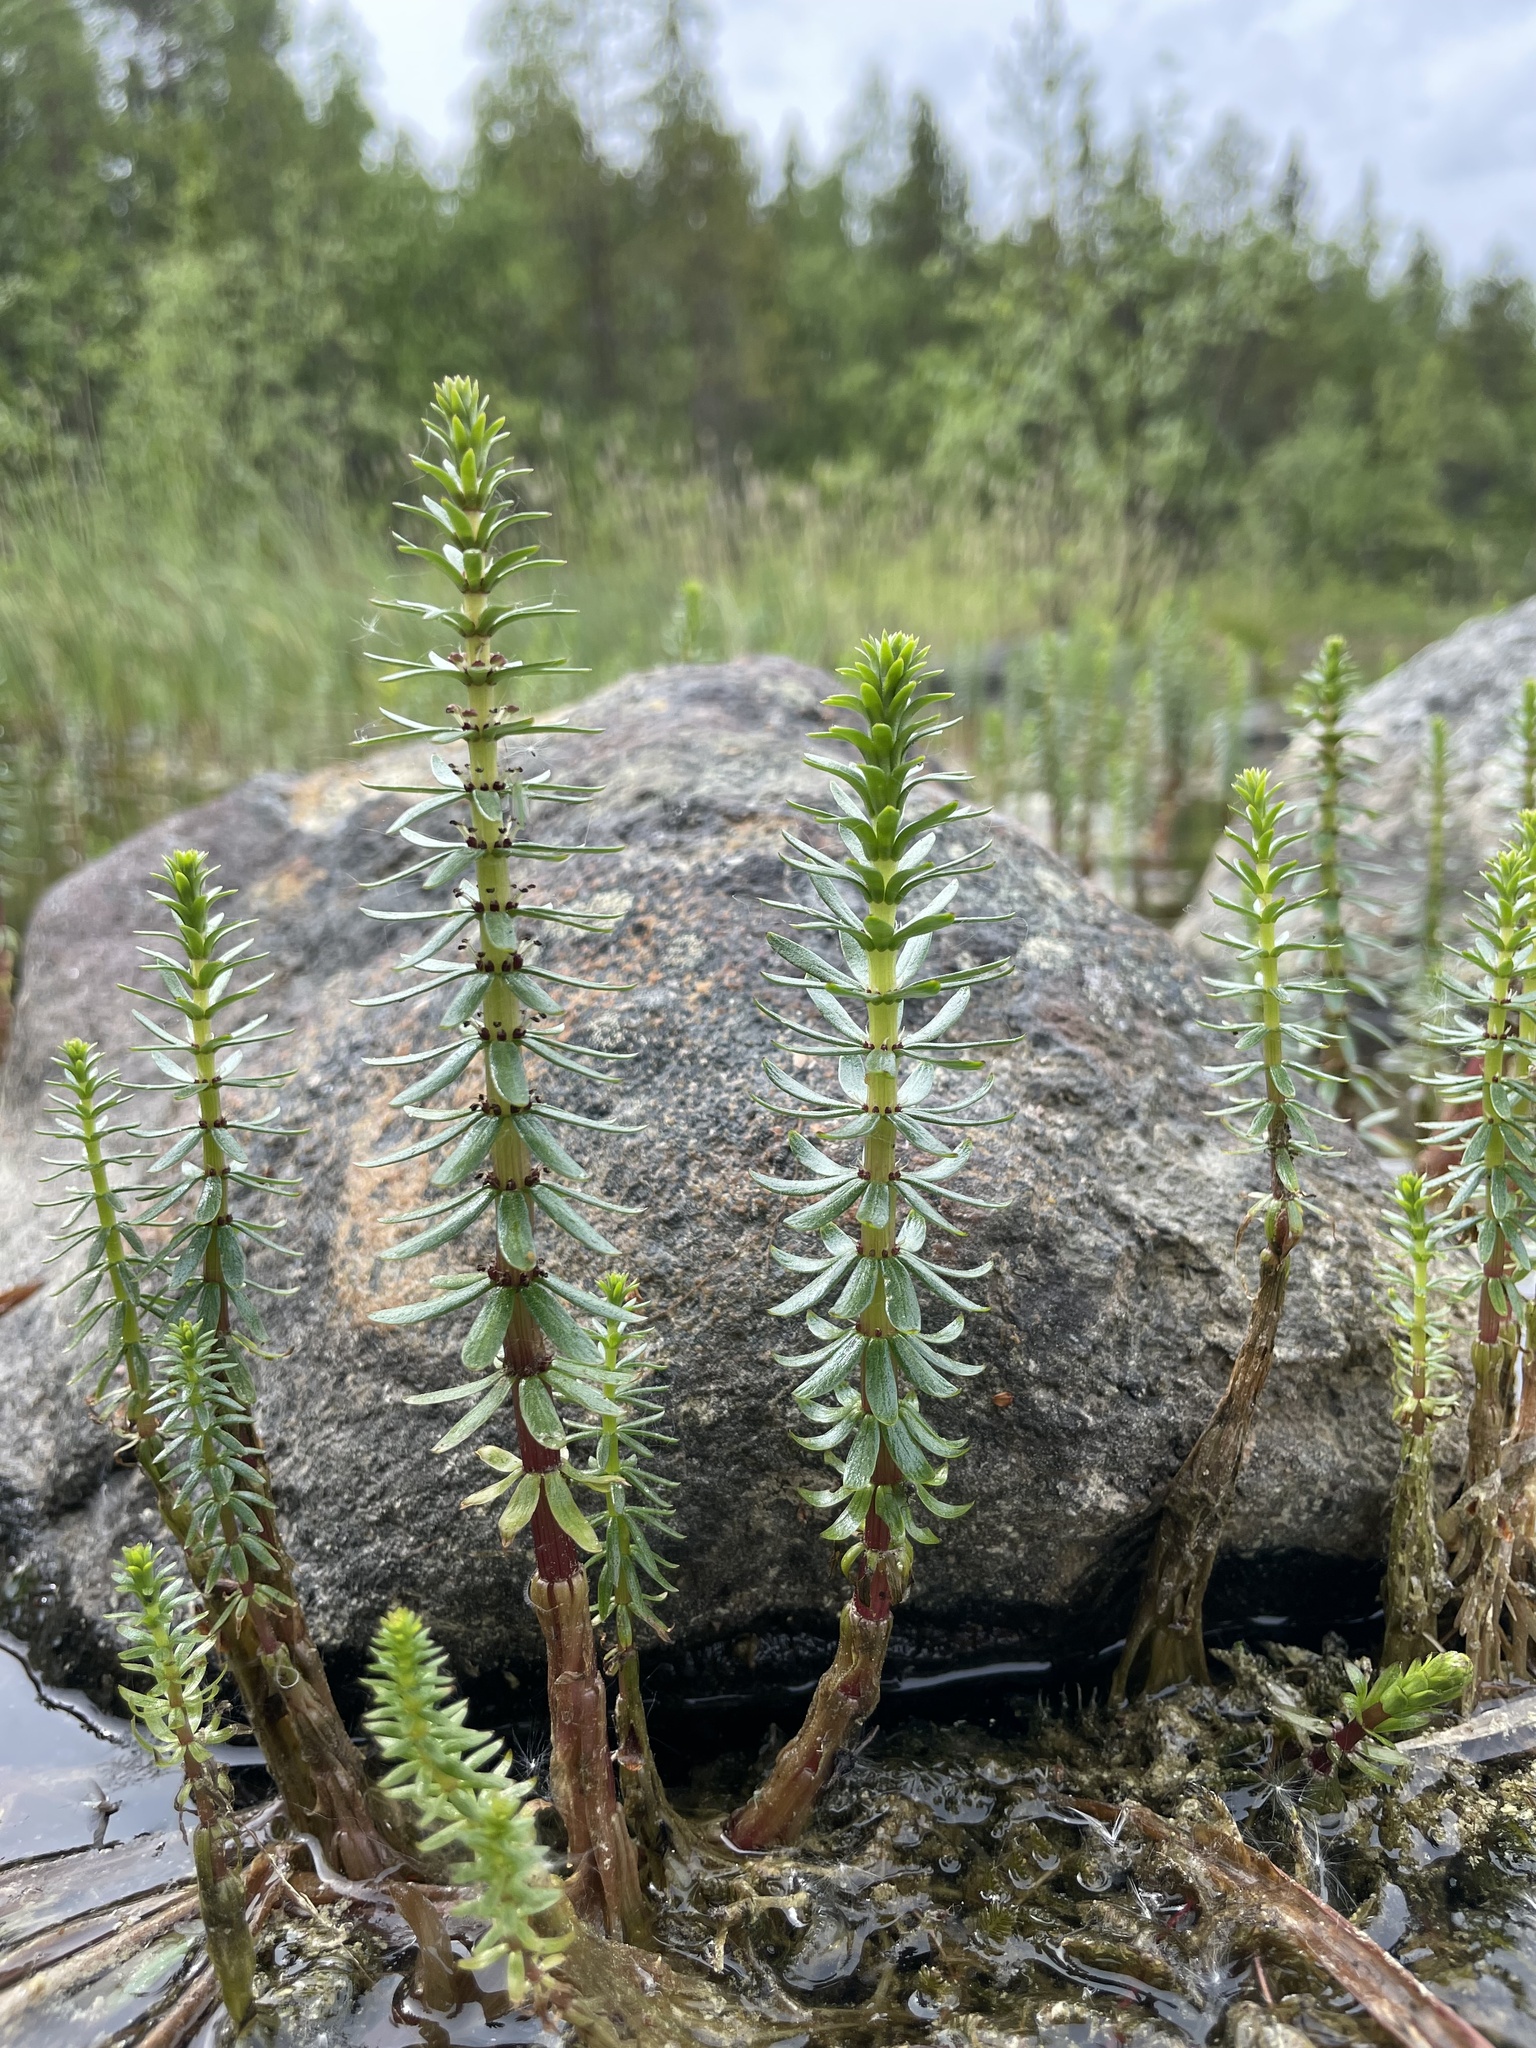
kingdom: Plantae
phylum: Tracheophyta
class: Magnoliopsida
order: Lamiales
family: Plantaginaceae
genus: Hippuris
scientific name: Hippuris vulgaris
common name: Mare's-tail
